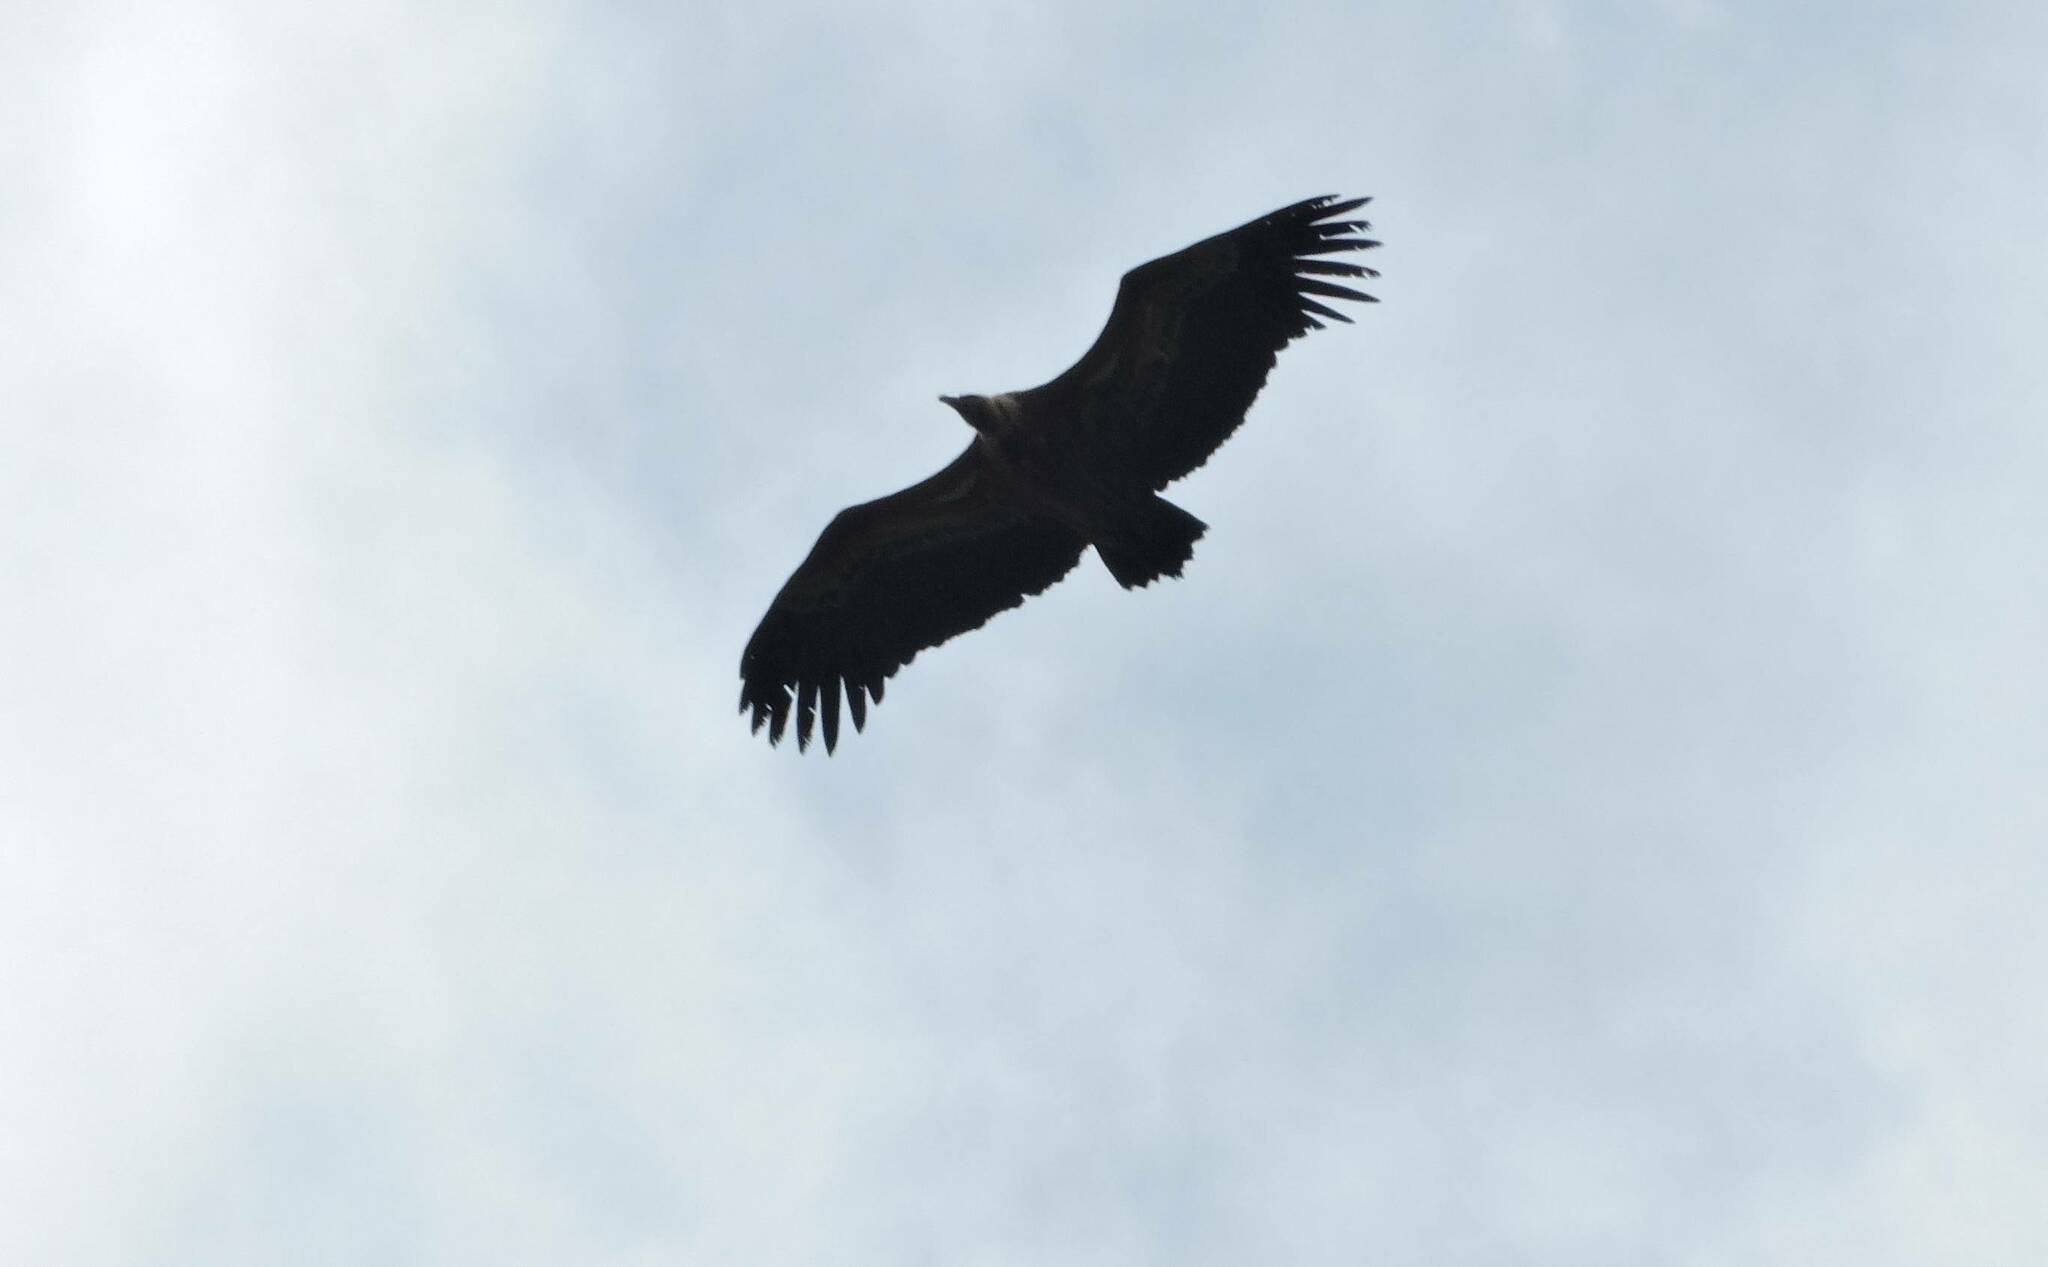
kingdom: Animalia
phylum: Chordata
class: Aves
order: Accipitriformes
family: Accipitridae
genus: Gyps
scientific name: Gyps fulvus
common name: Griffon vulture
